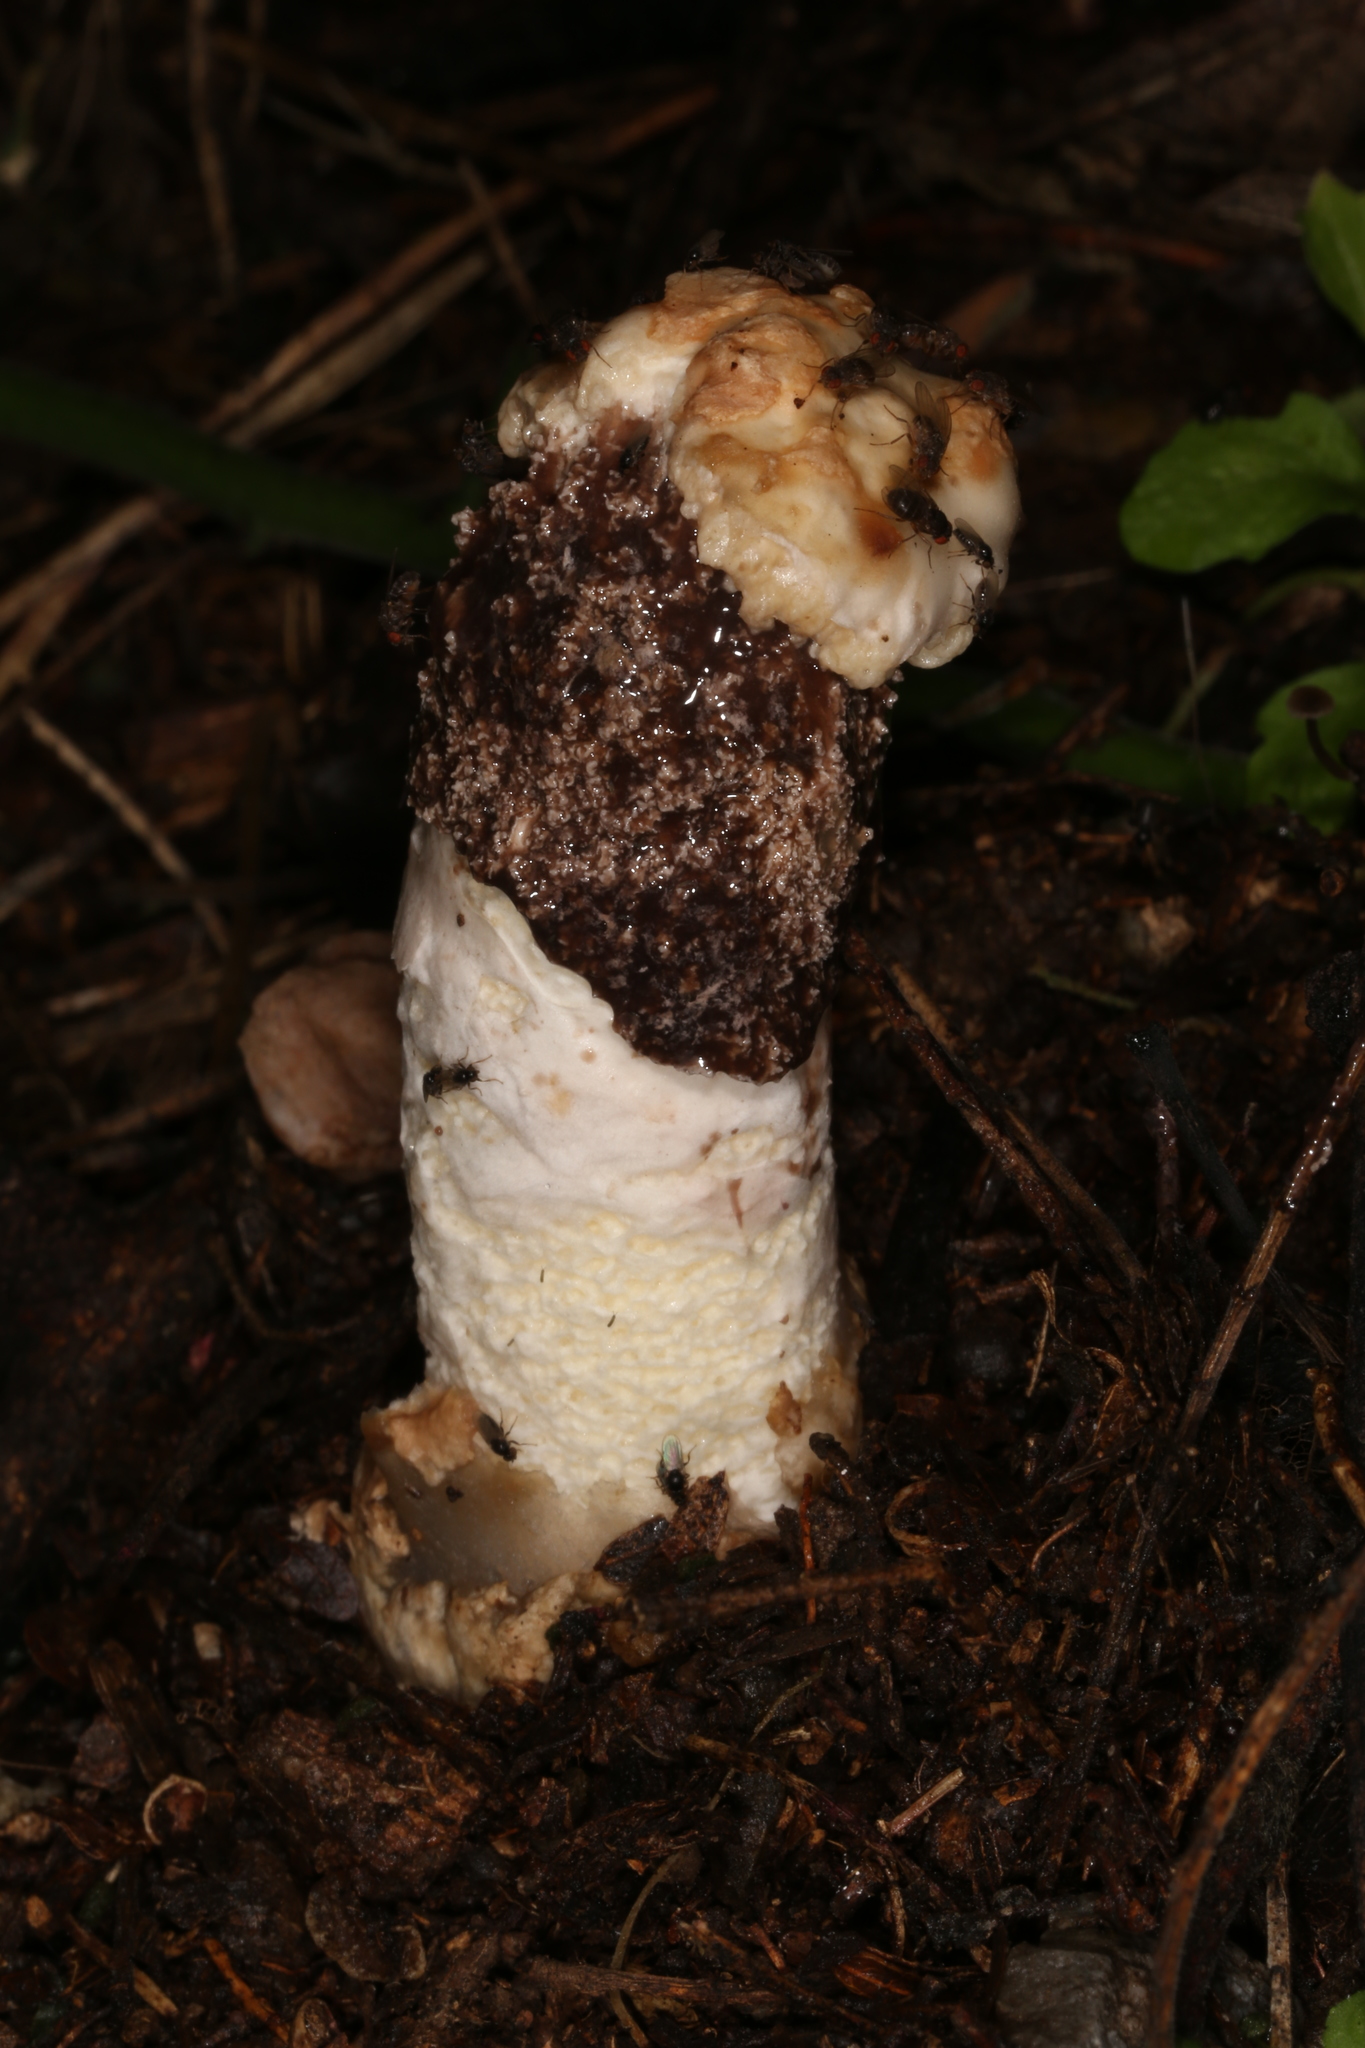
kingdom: Fungi
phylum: Basidiomycota
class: Agaricomycetes
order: Phallales
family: Phallaceae
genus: Itajahya
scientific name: Itajahya galericulata
